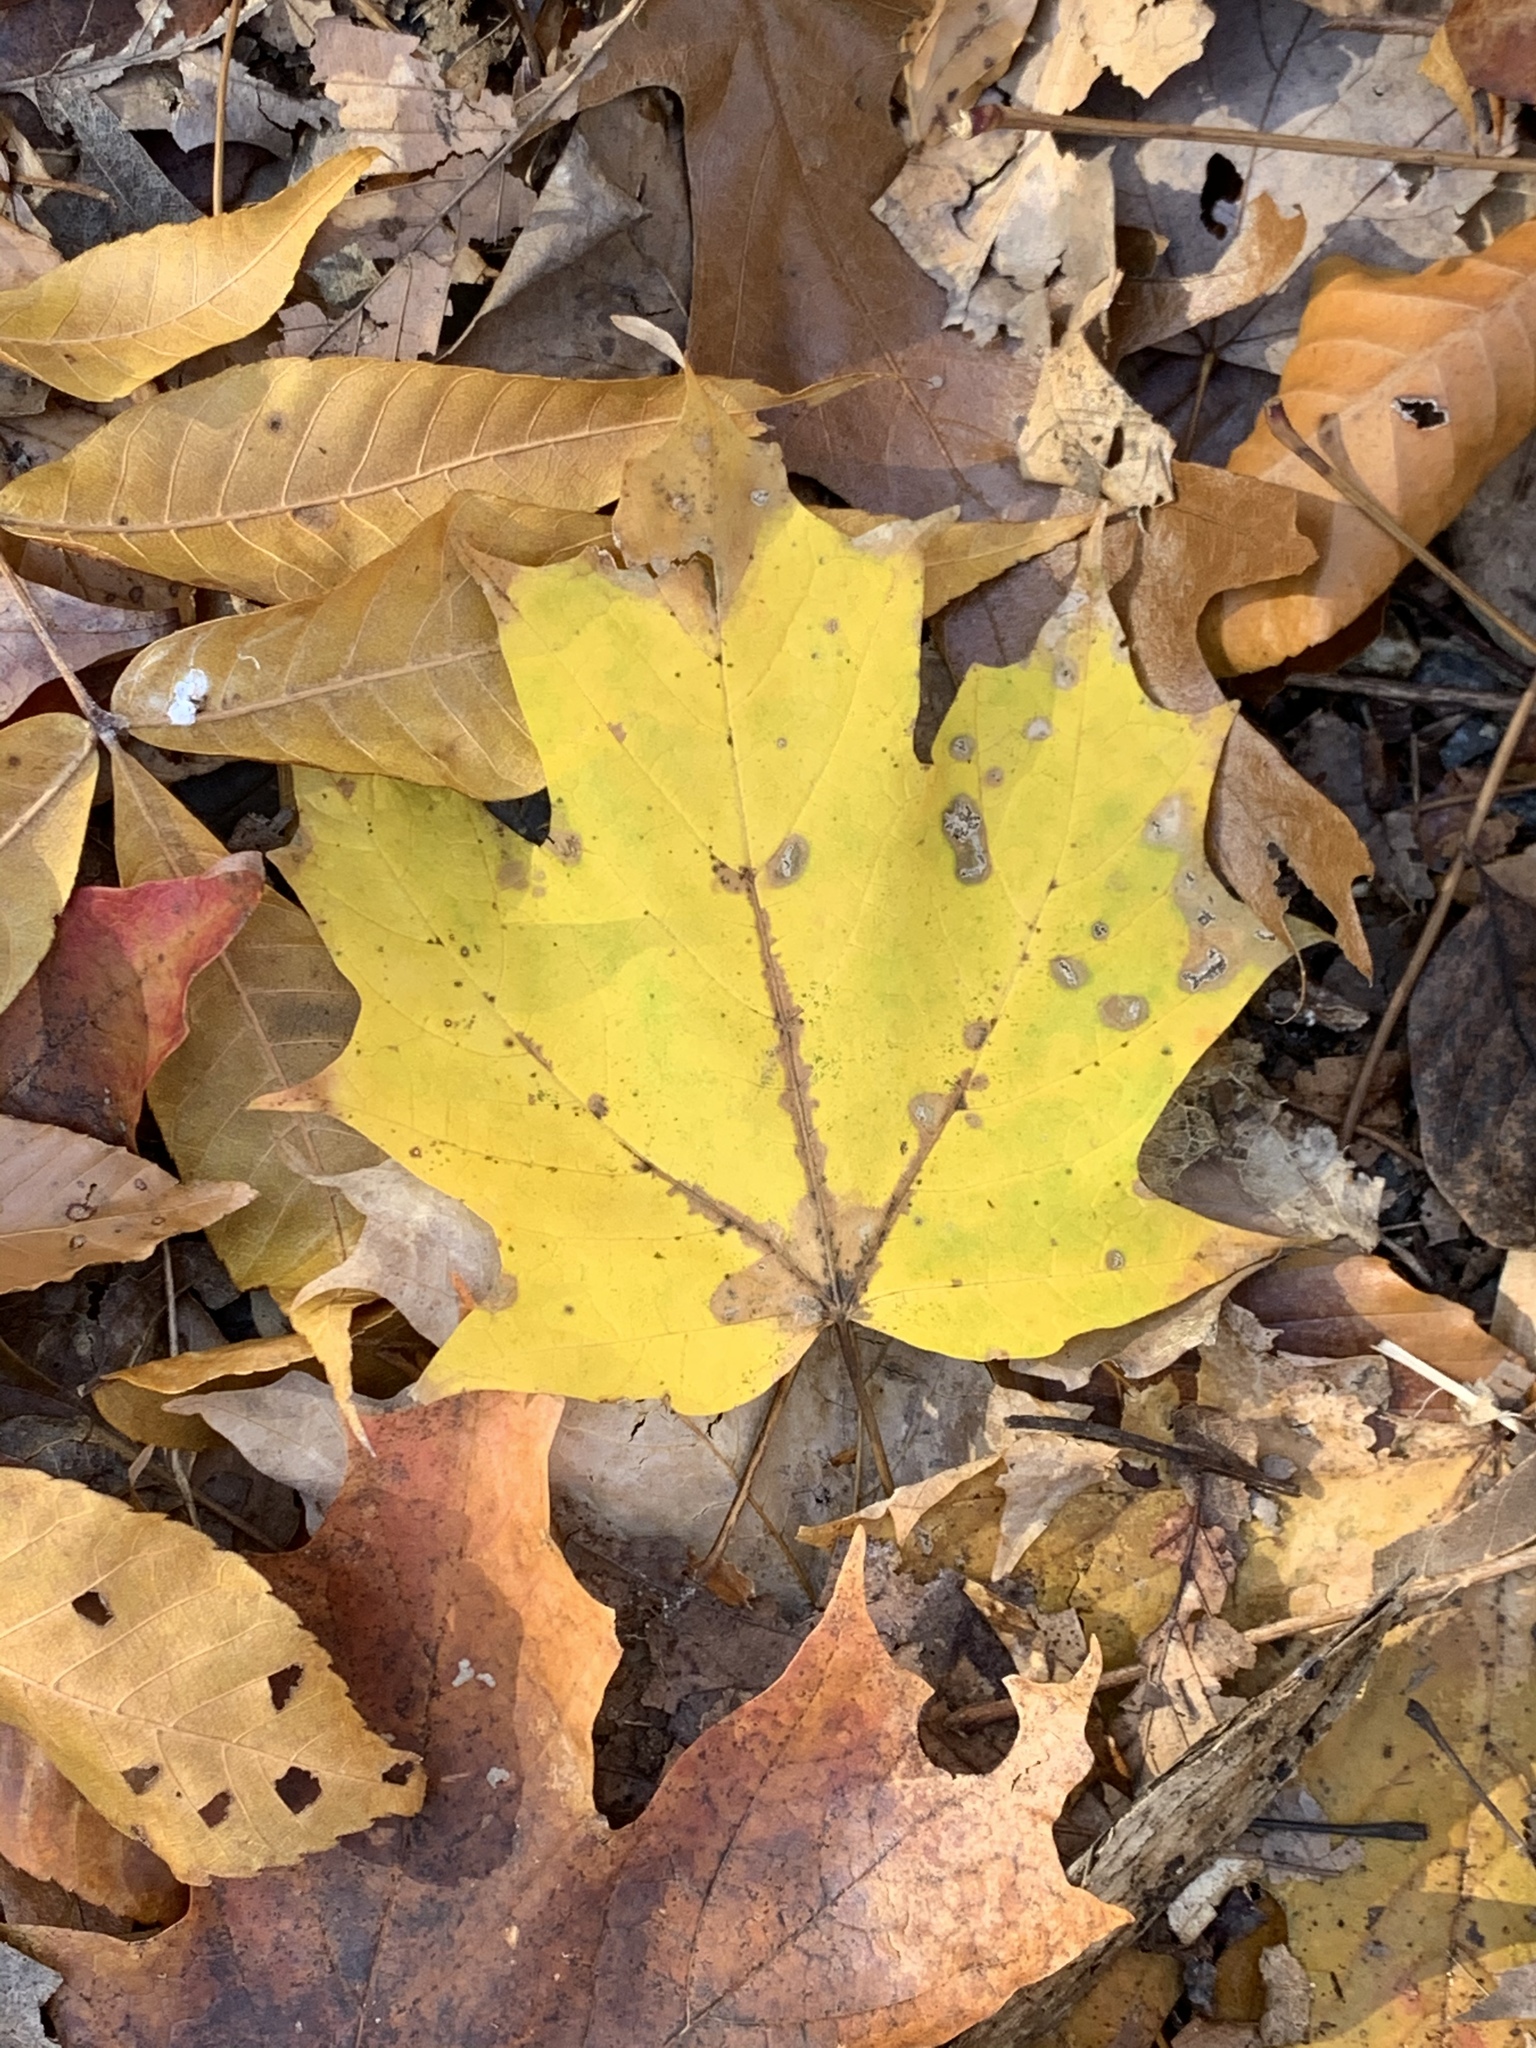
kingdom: Plantae
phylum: Tracheophyta
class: Magnoliopsida
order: Sapindales
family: Sapindaceae
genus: Acer
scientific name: Acer saccharum
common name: Sugar maple
